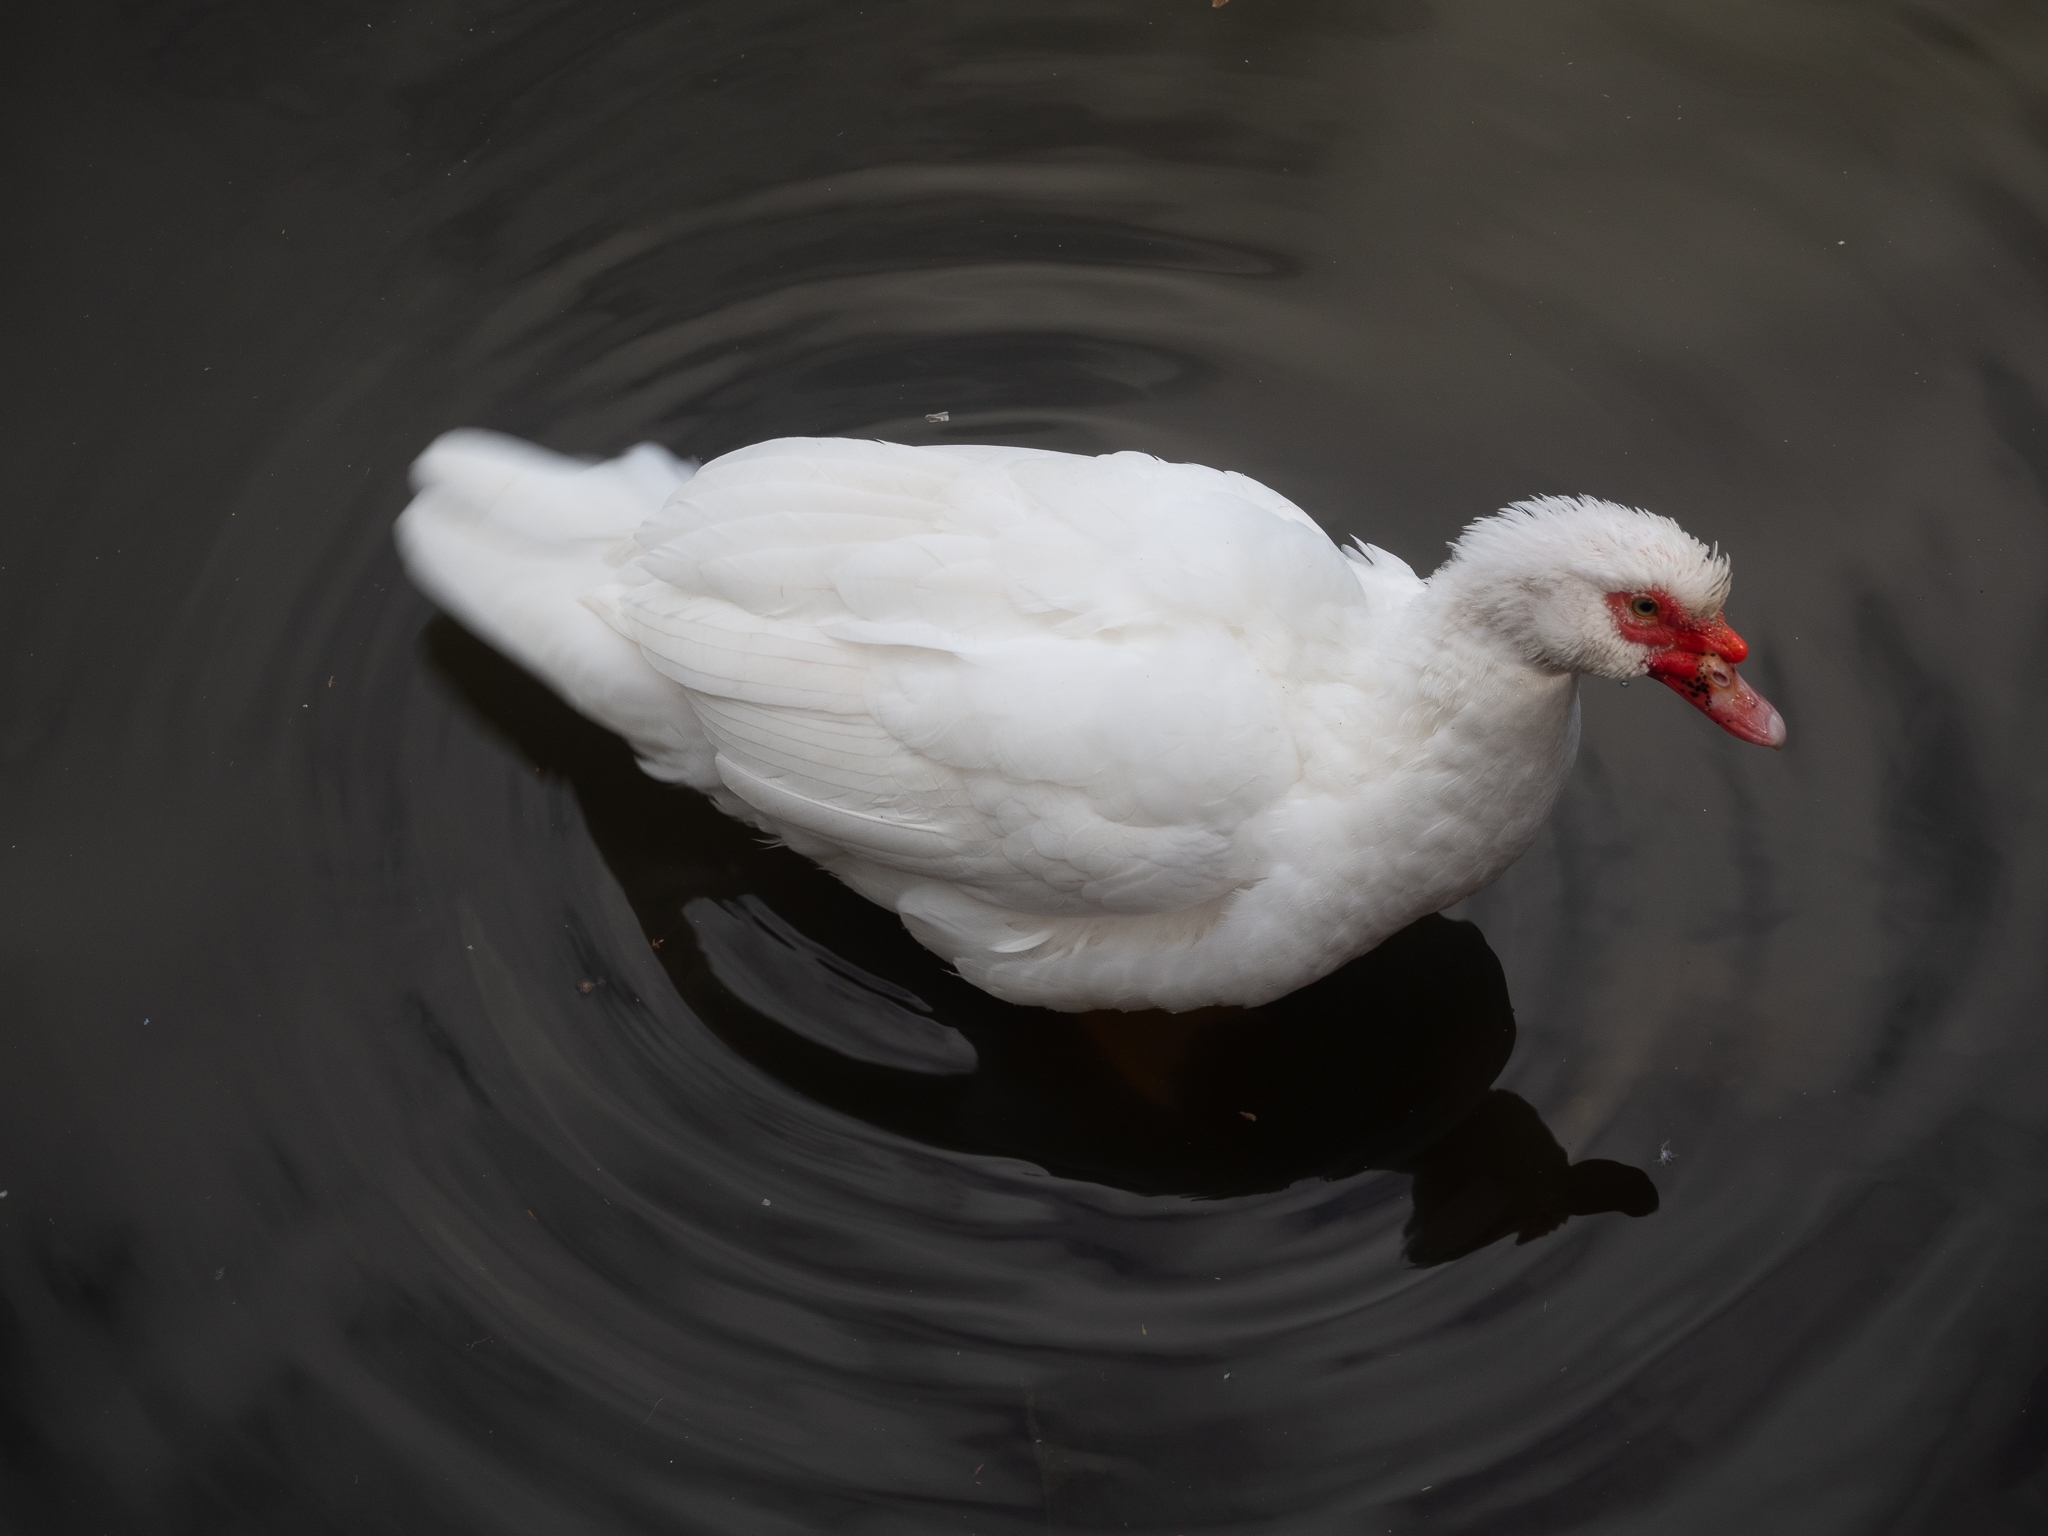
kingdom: Animalia
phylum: Chordata
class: Aves
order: Anseriformes
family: Anatidae
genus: Cairina
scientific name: Cairina moschata
